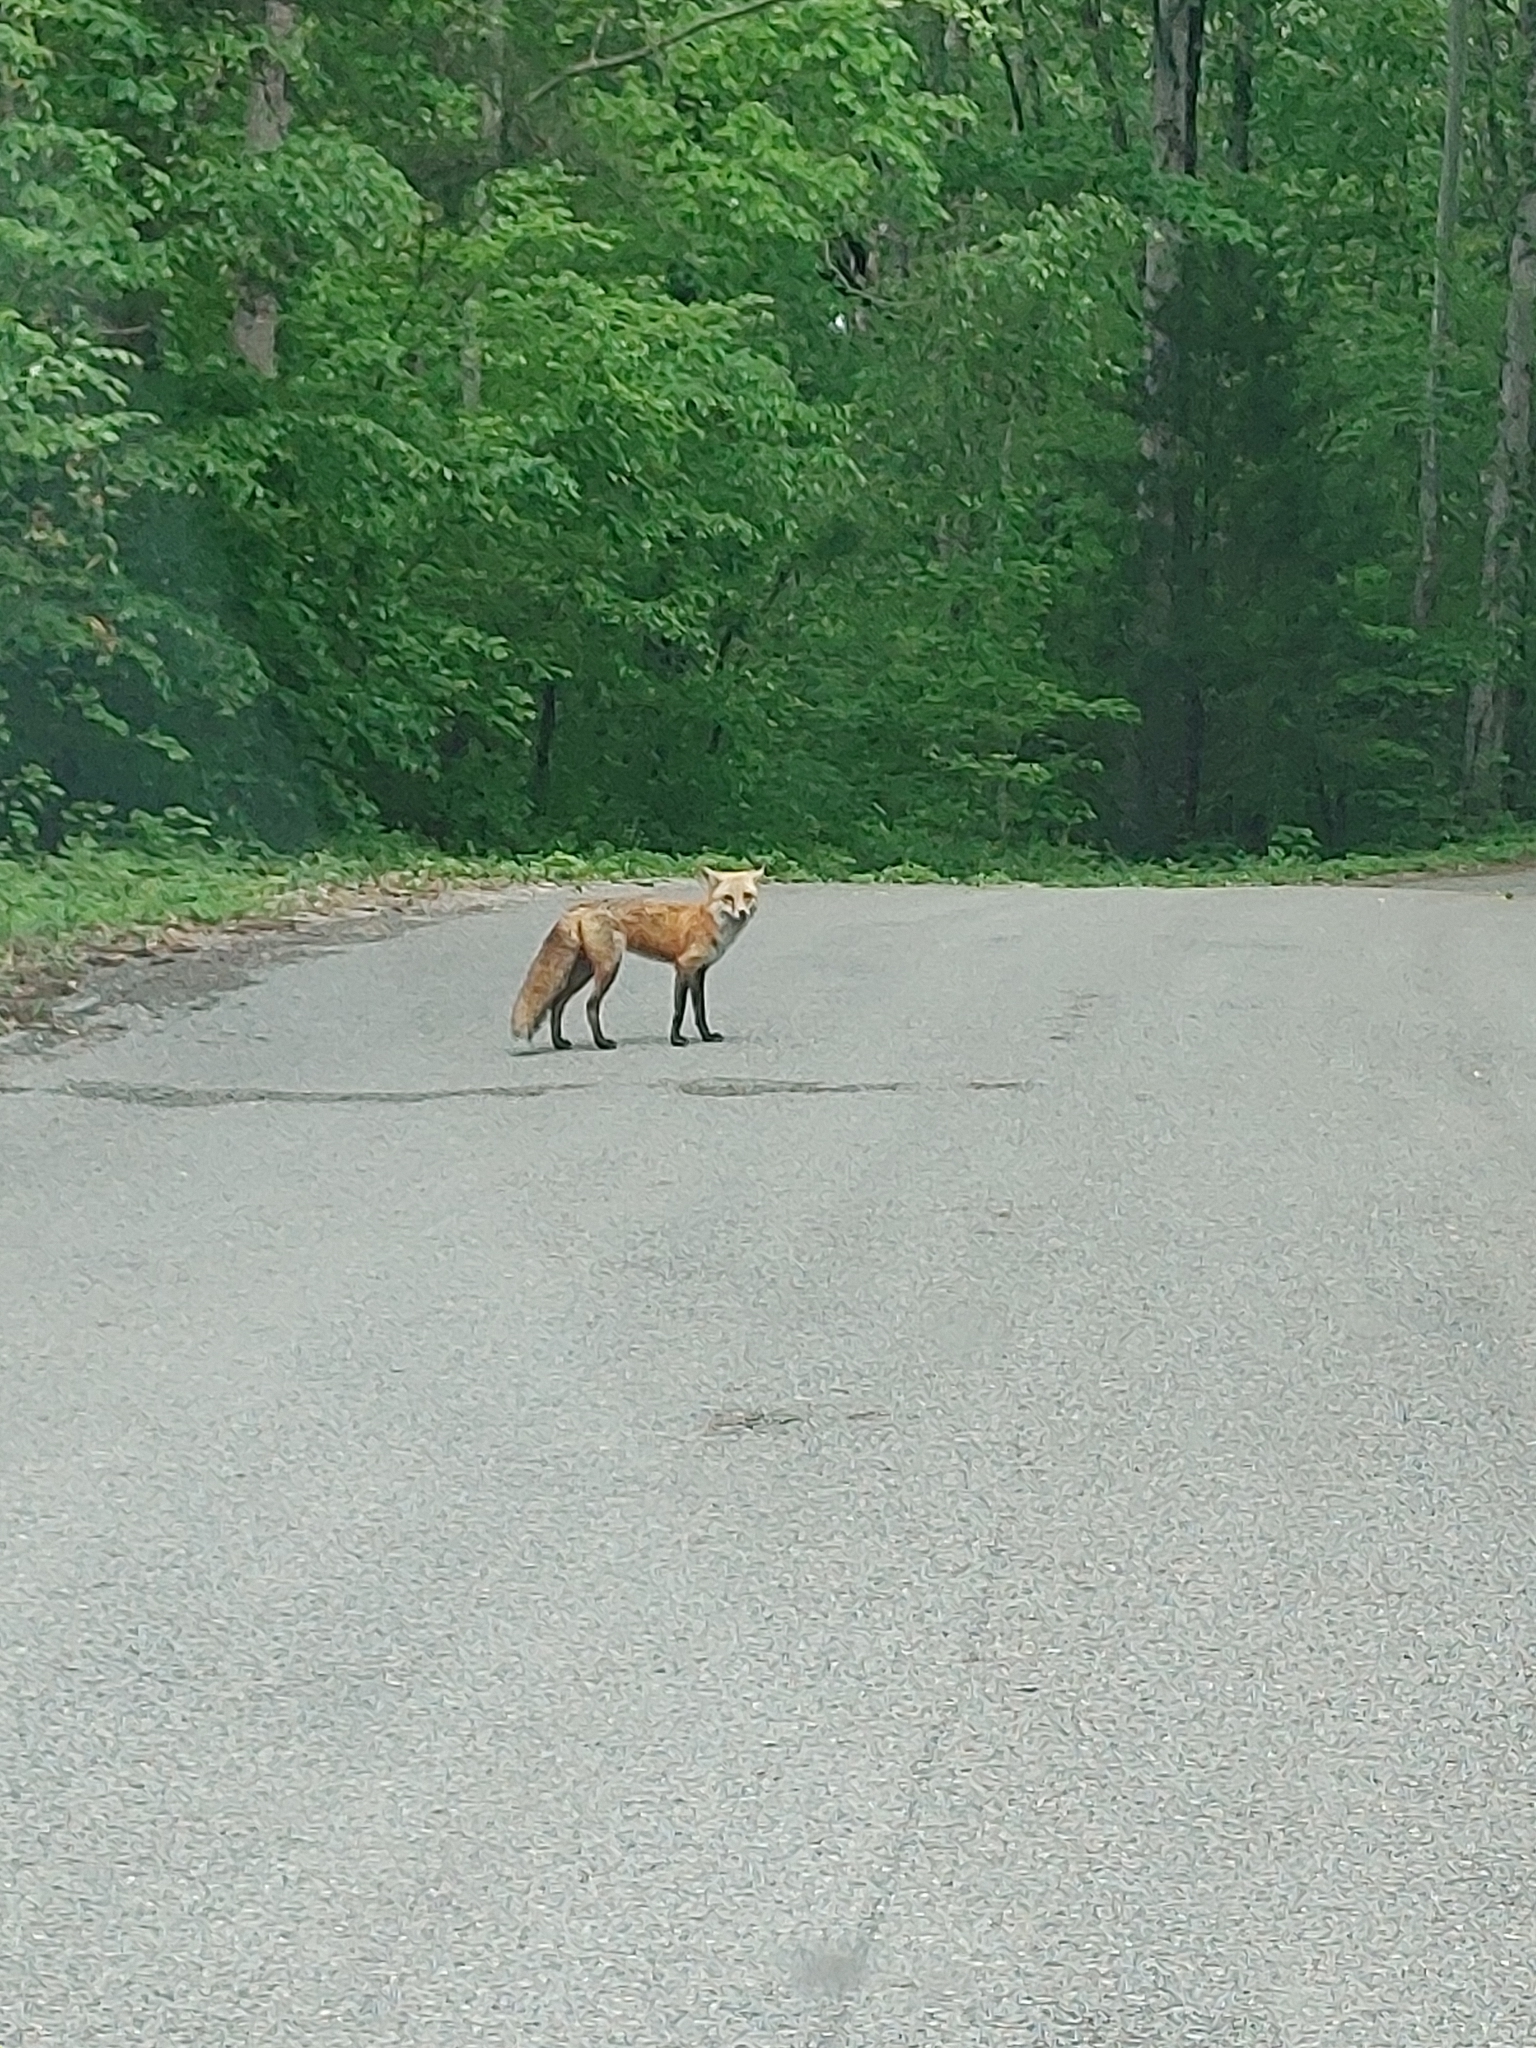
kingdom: Animalia
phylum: Chordata
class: Mammalia
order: Carnivora
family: Canidae
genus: Vulpes
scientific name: Vulpes vulpes
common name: Red fox
